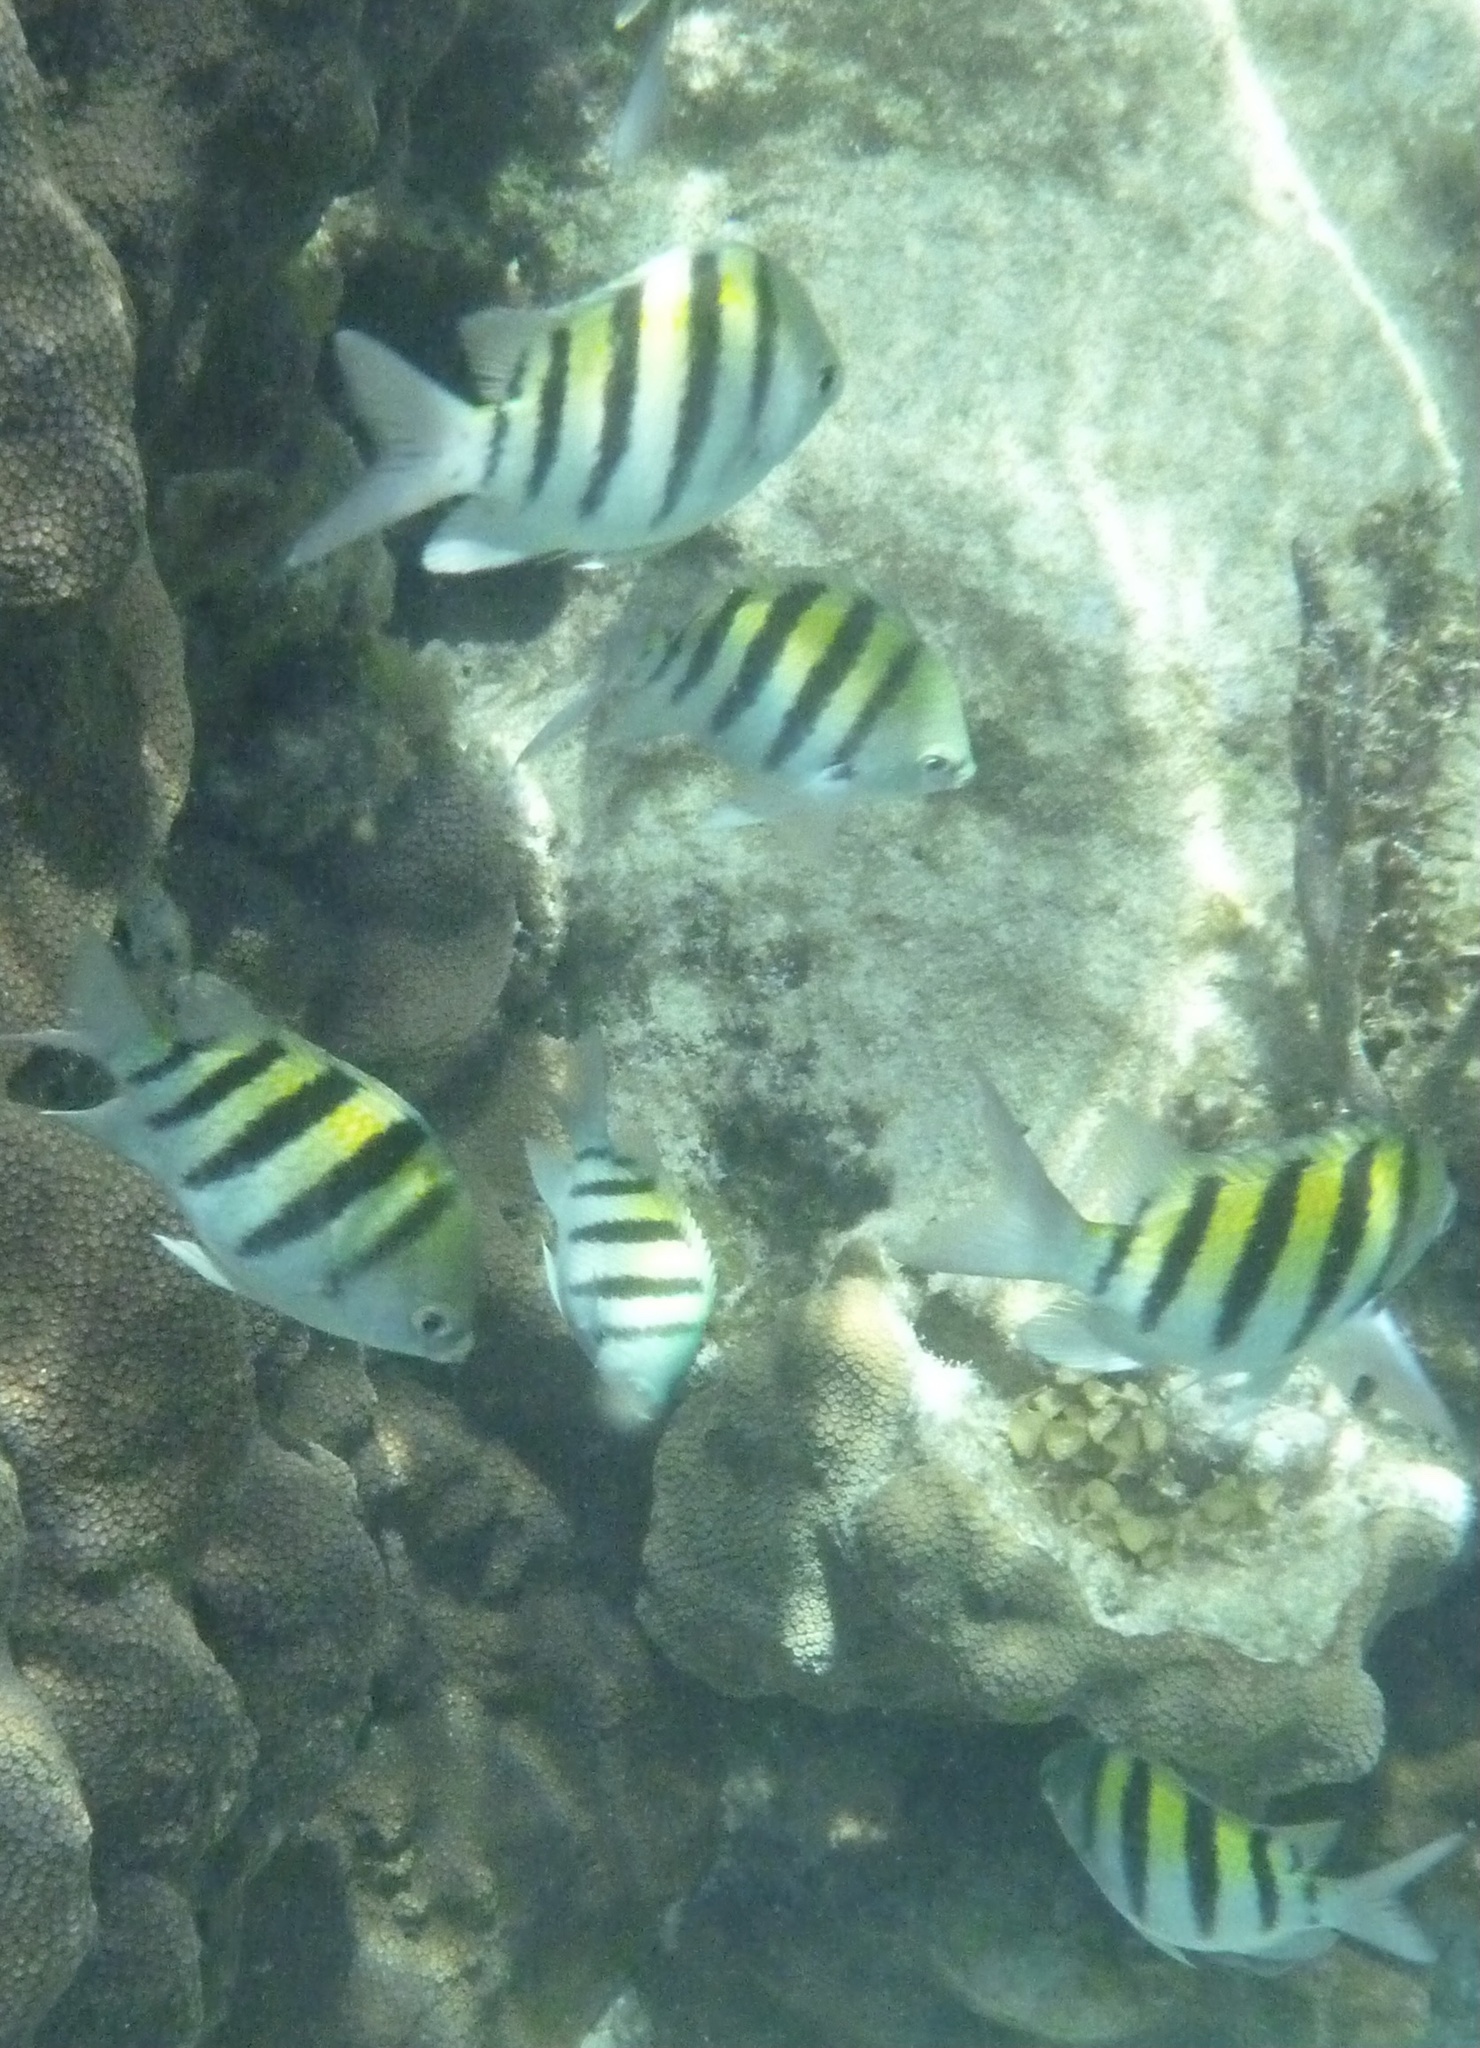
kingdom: Animalia
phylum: Chordata
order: Perciformes
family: Pomacentridae
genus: Abudefduf
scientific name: Abudefduf saxatilis
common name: Sergeant major
